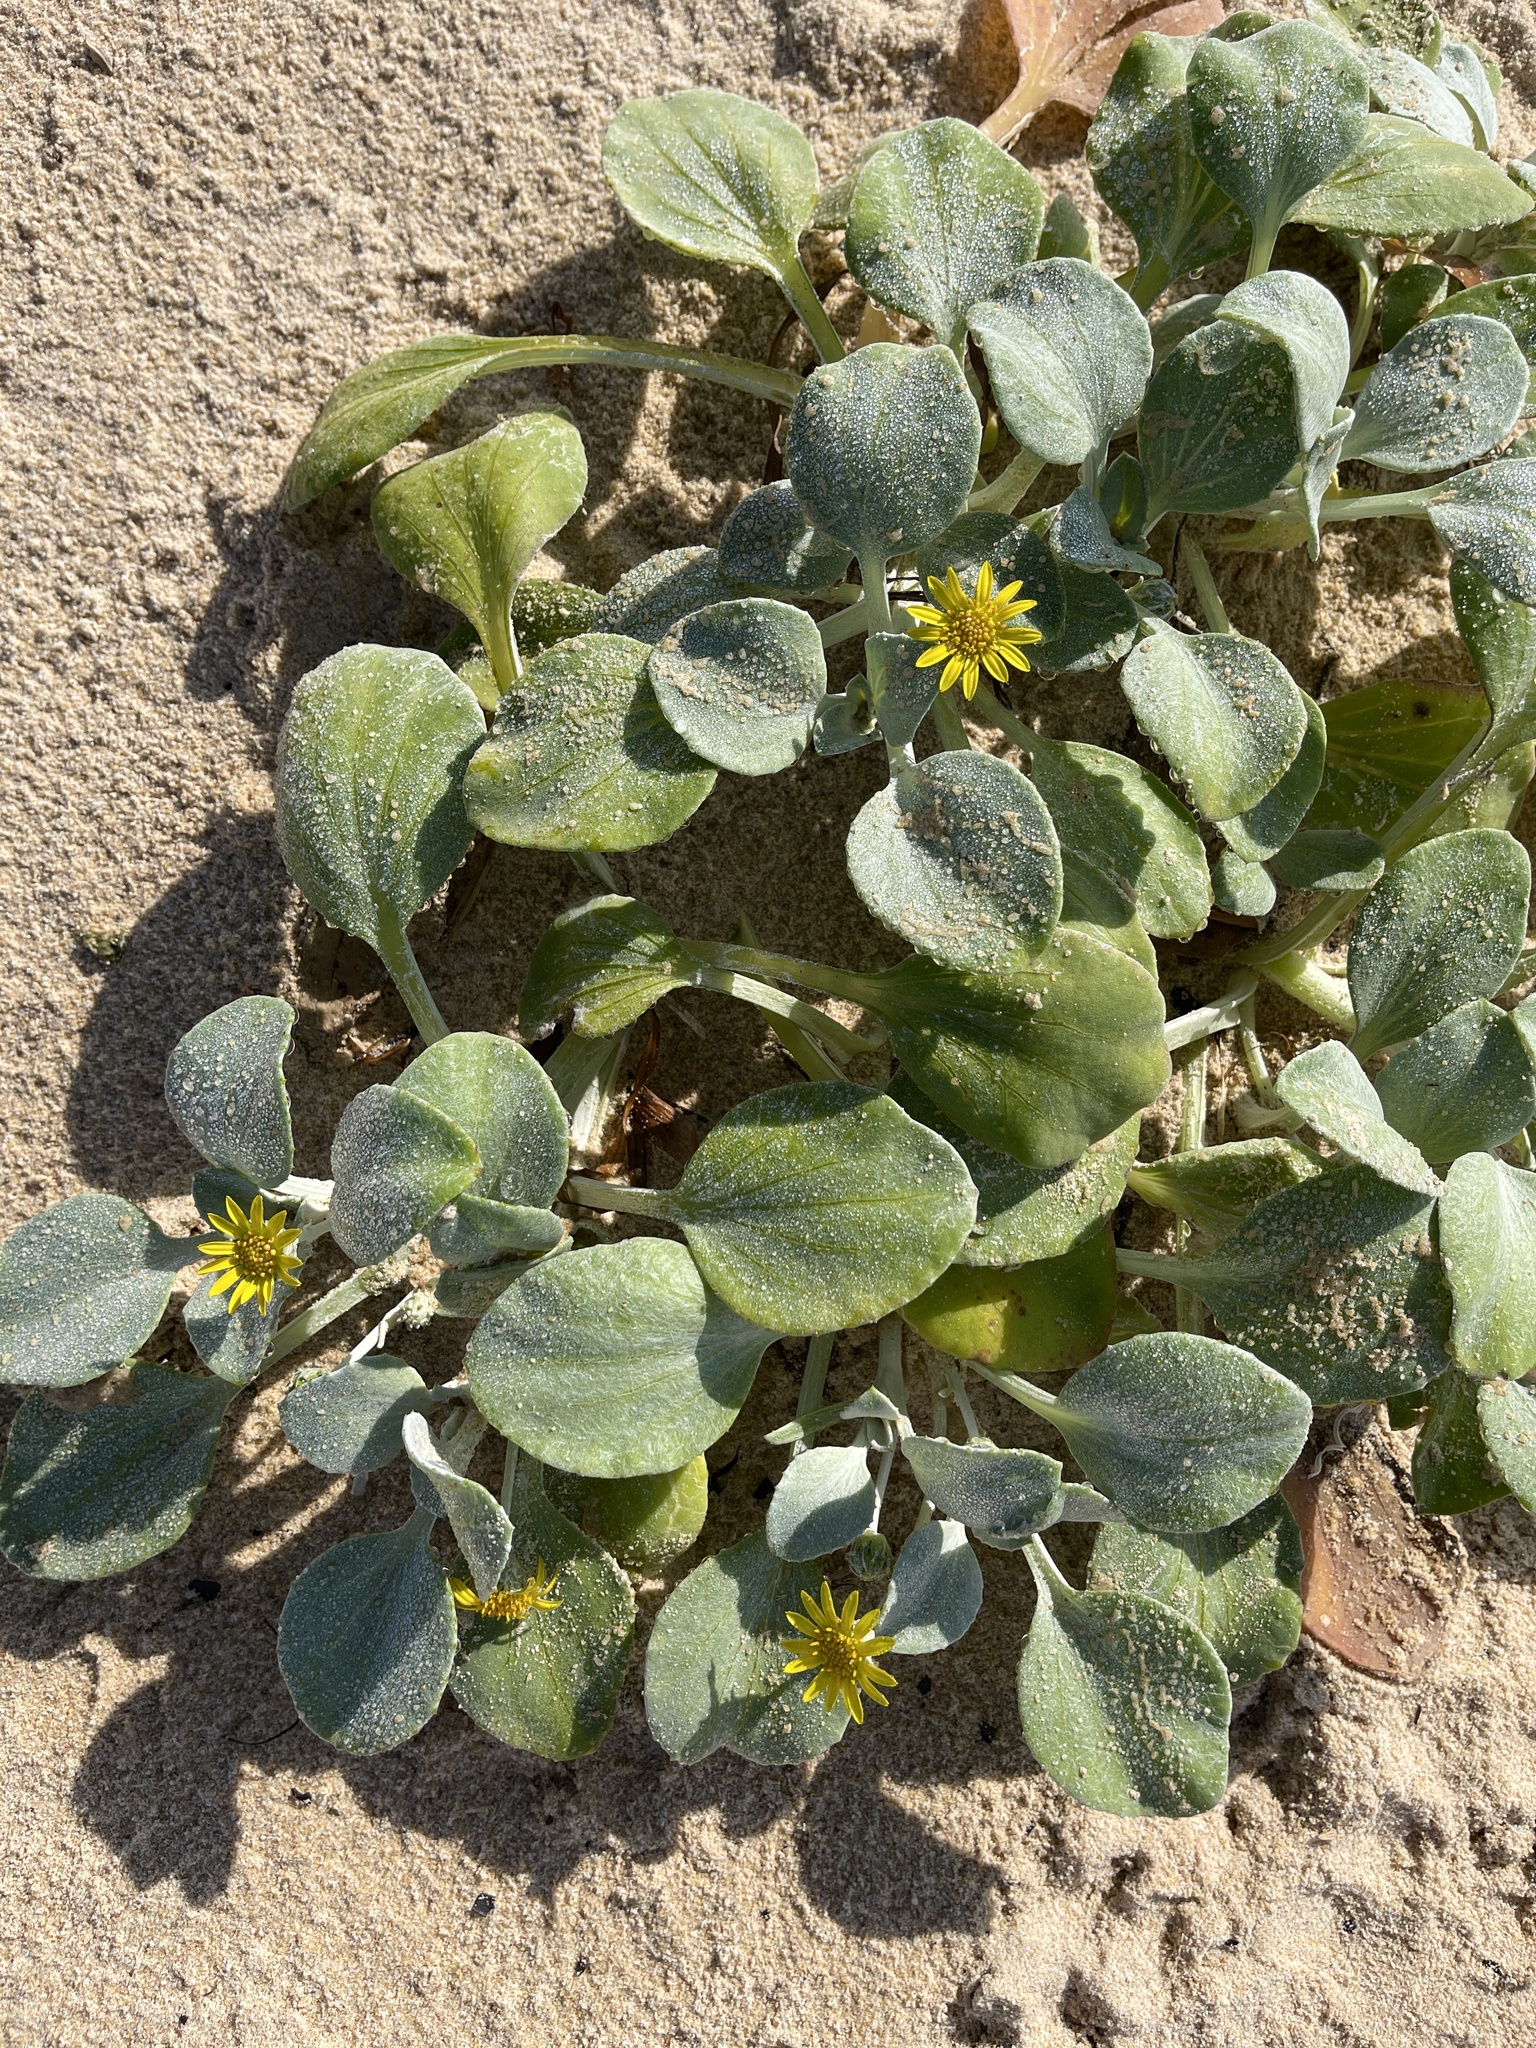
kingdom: Plantae
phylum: Tracheophyta
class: Magnoliopsida
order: Asterales
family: Asteraceae
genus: Arctotheca
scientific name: Arctotheca populifolia
